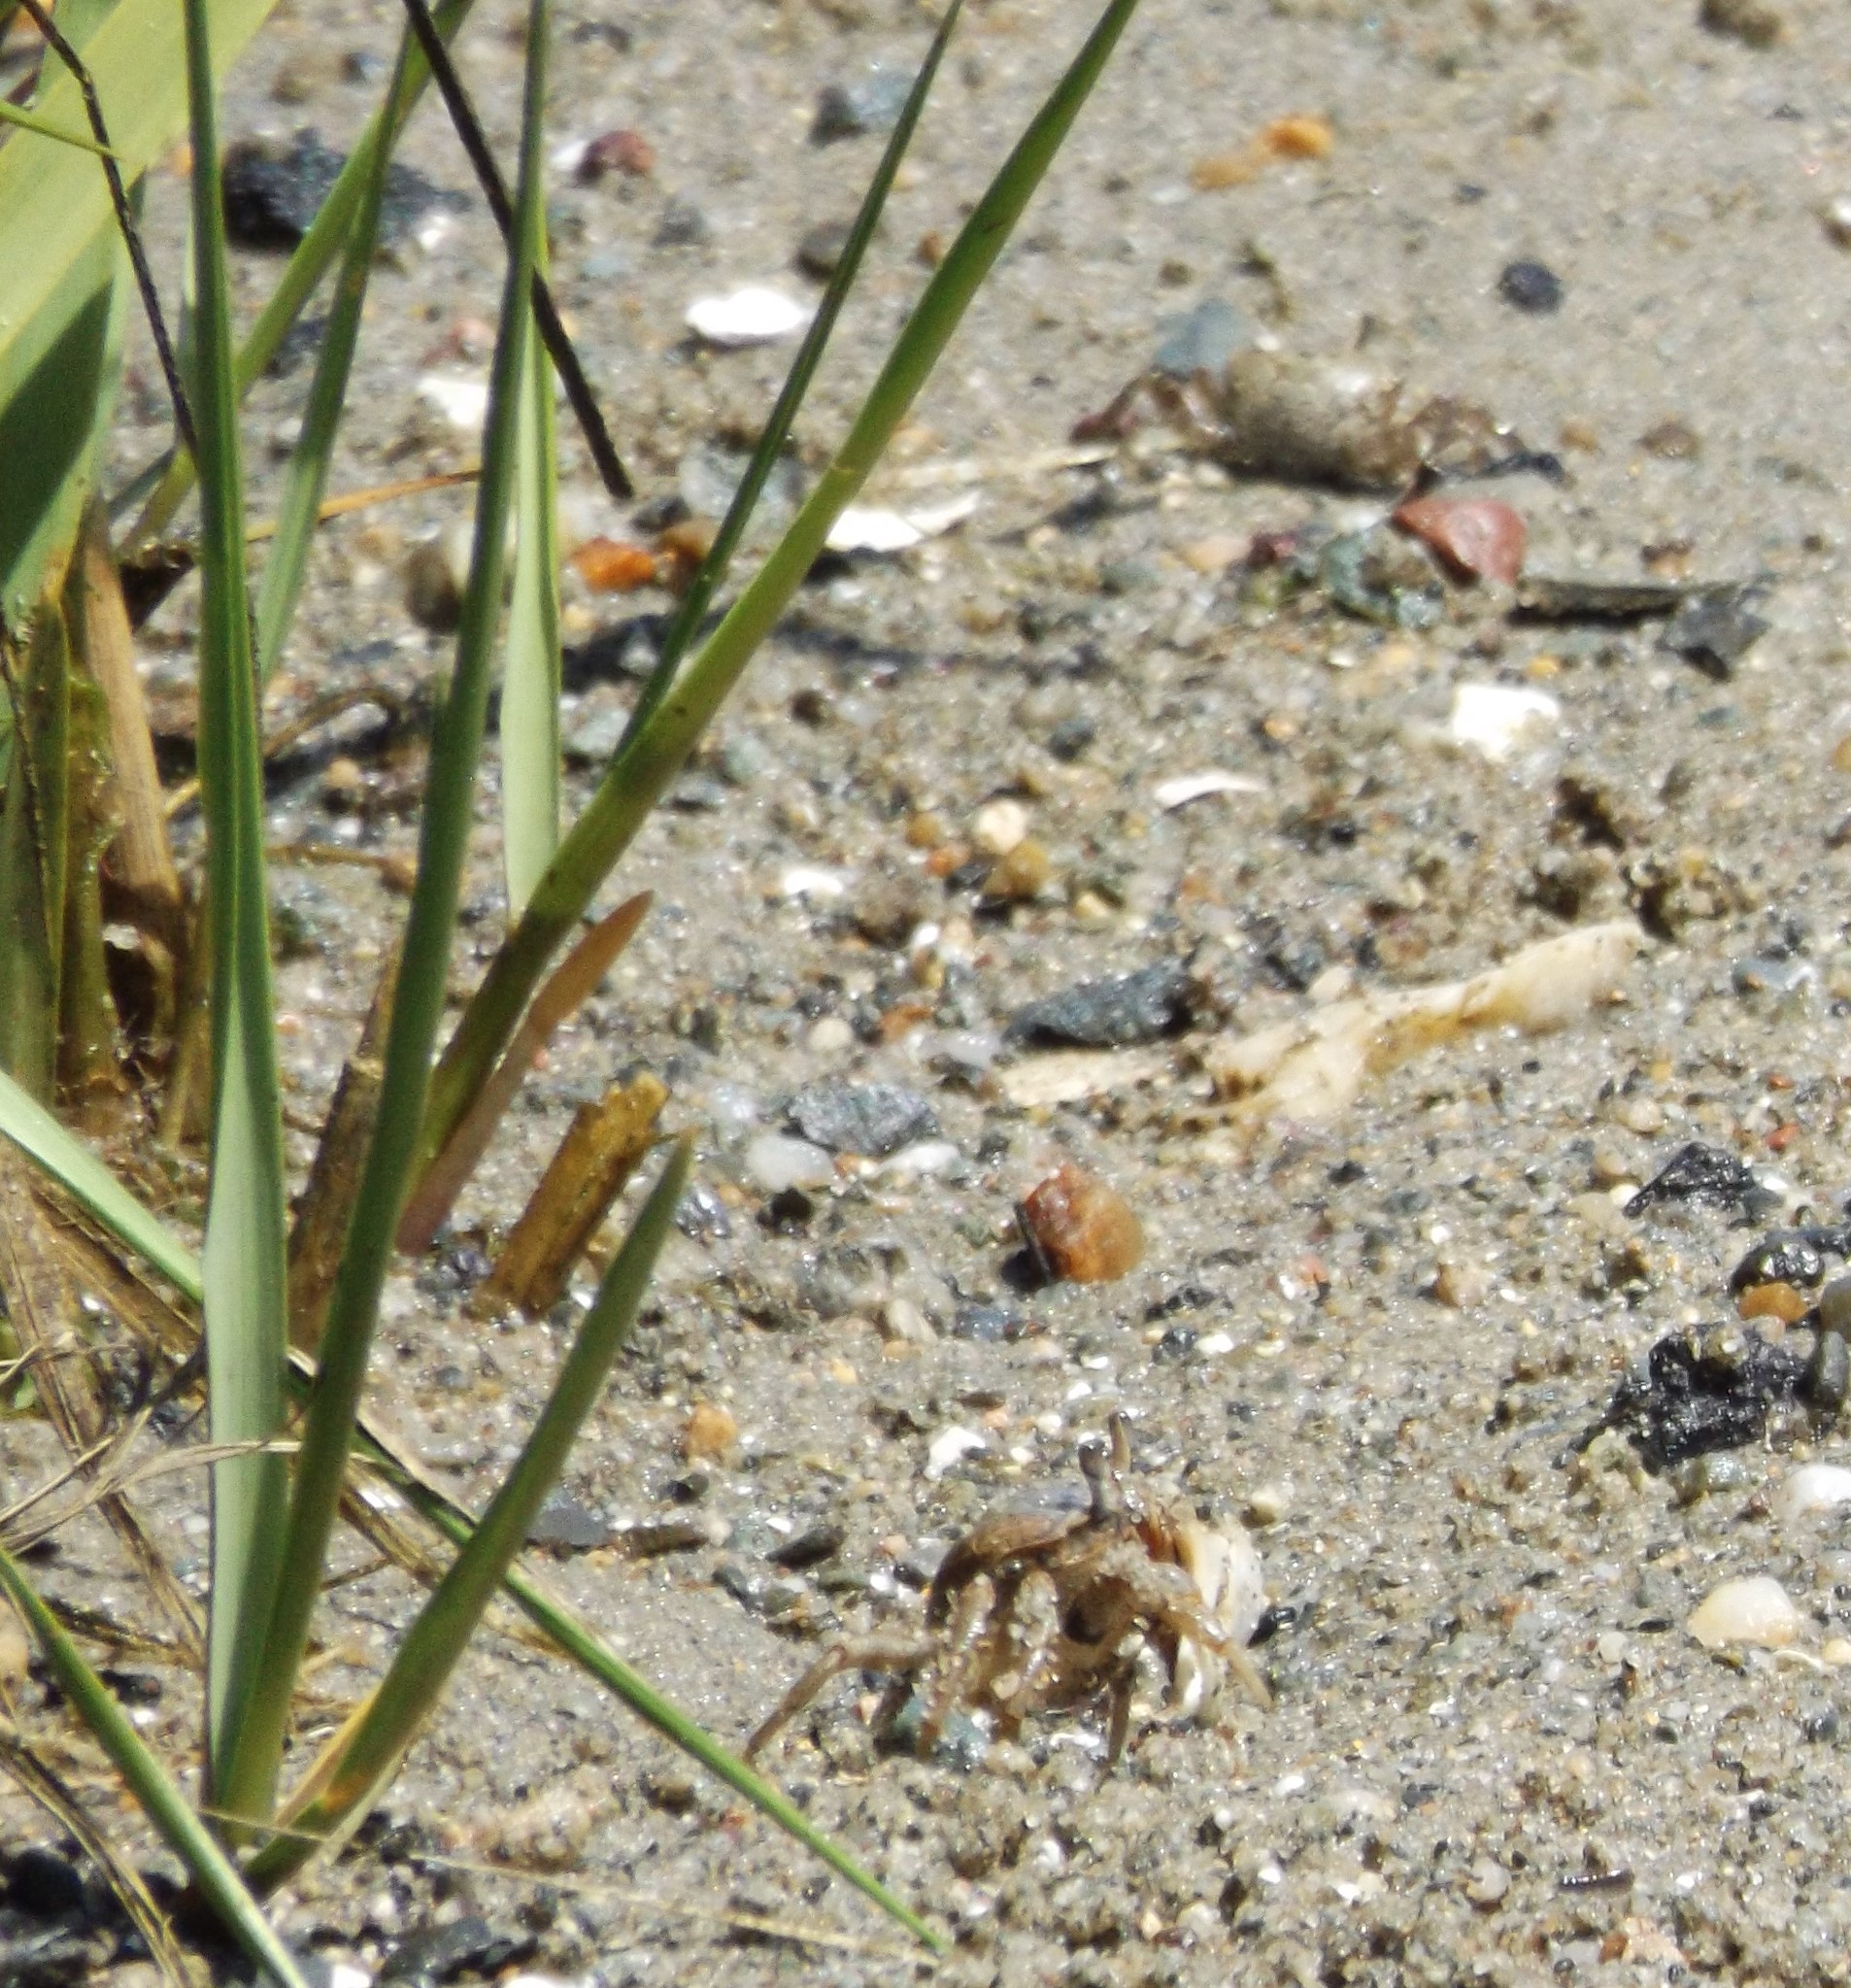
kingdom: Animalia
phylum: Arthropoda
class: Malacostraca
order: Decapoda
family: Ocypodidae
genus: Leptuca
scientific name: Leptuca pugilator
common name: Atlantic sand fiddler crab
